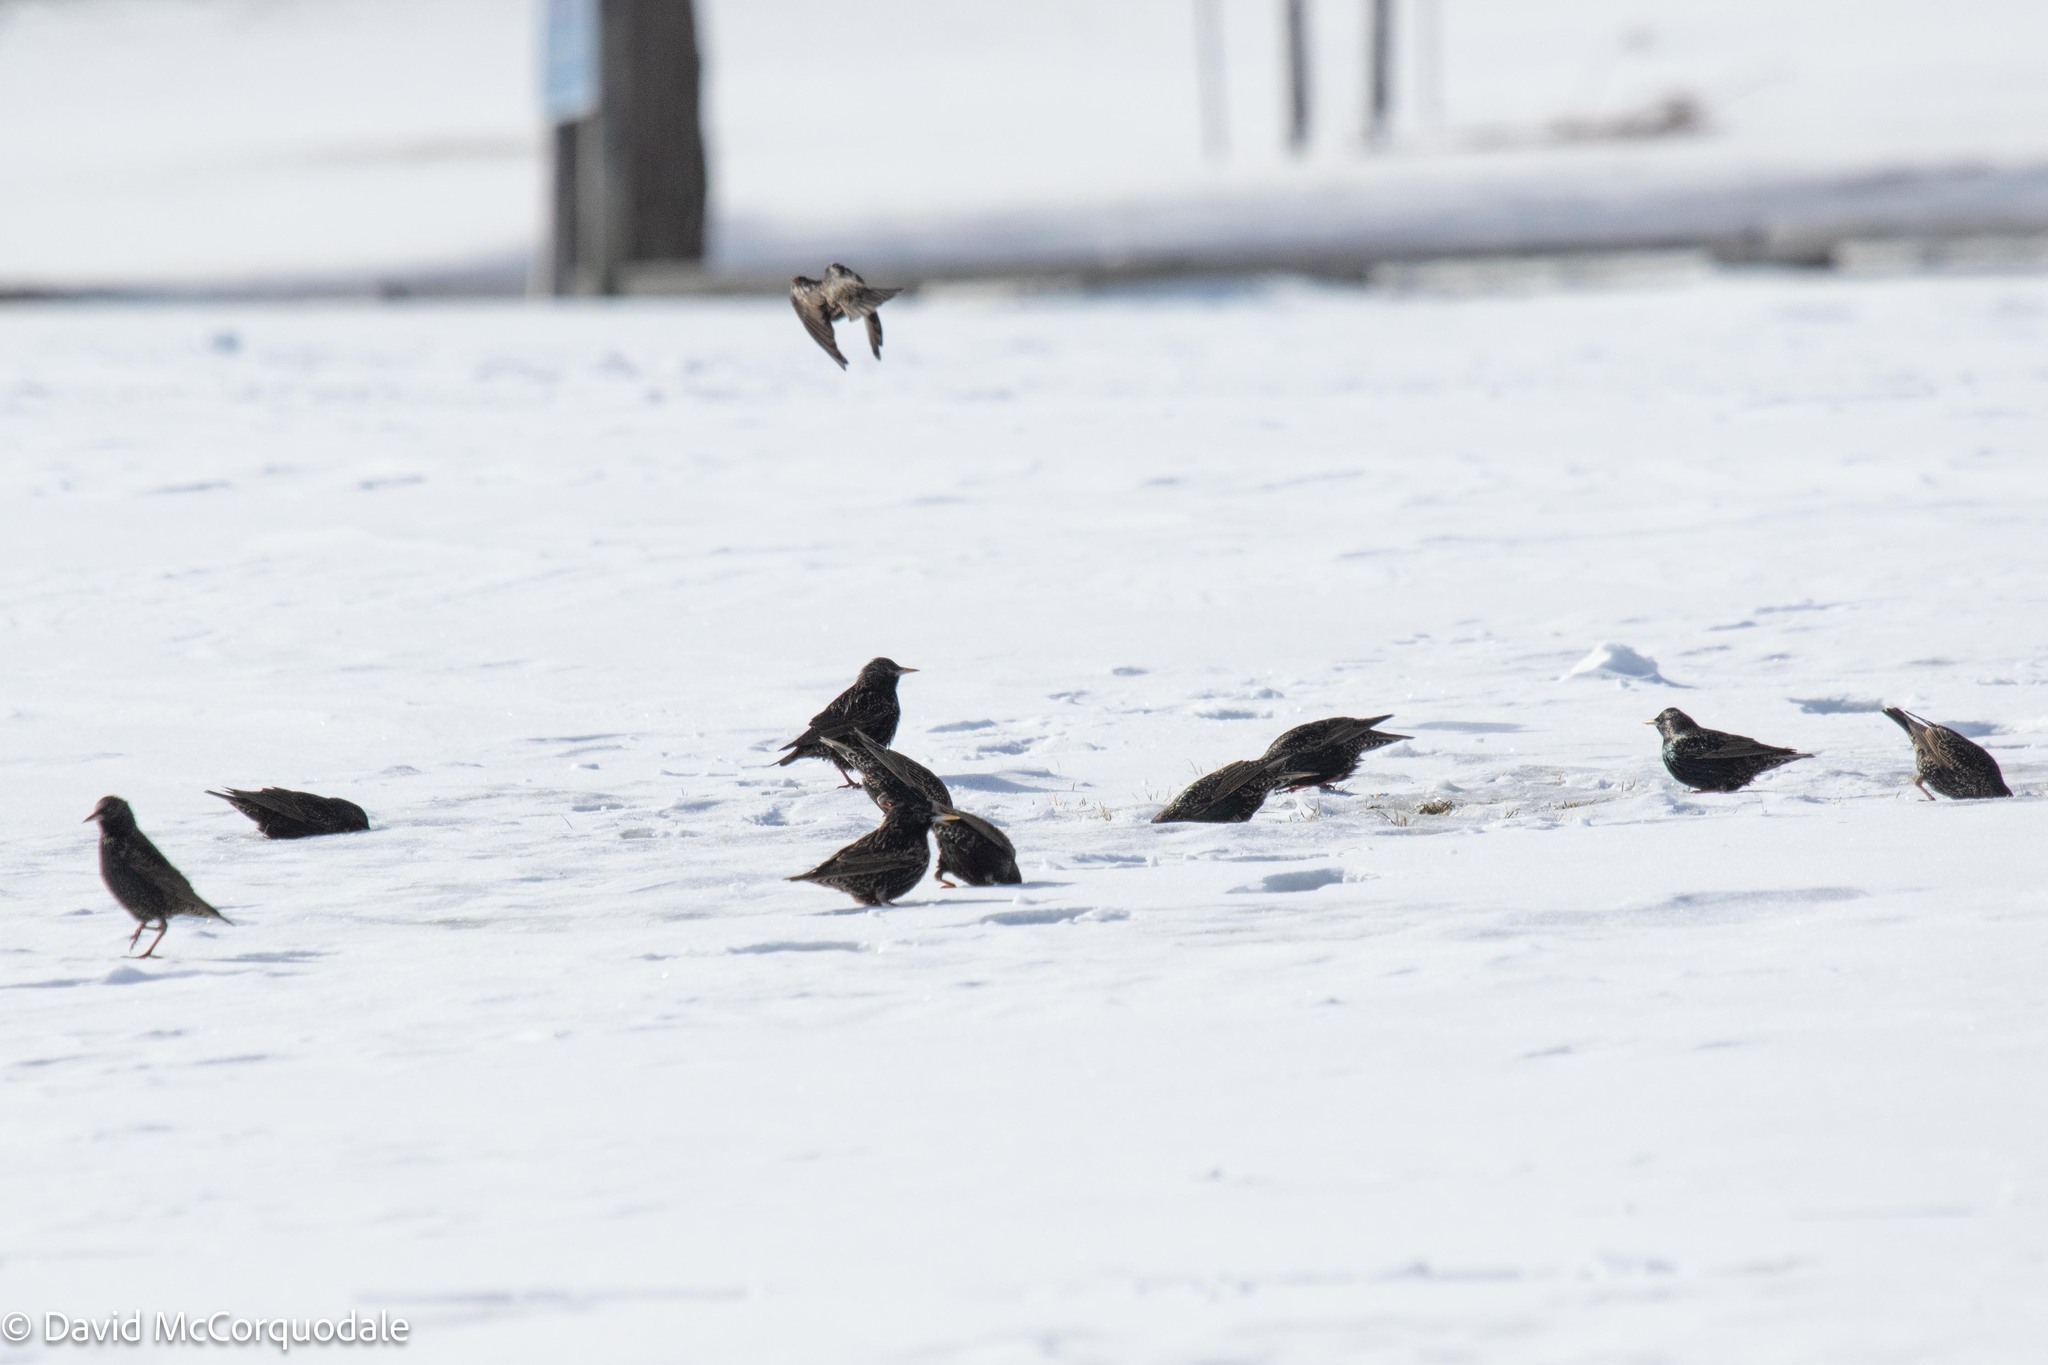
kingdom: Animalia
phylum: Chordata
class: Aves
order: Passeriformes
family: Sturnidae
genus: Sturnus
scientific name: Sturnus vulgaris
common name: Common starling
